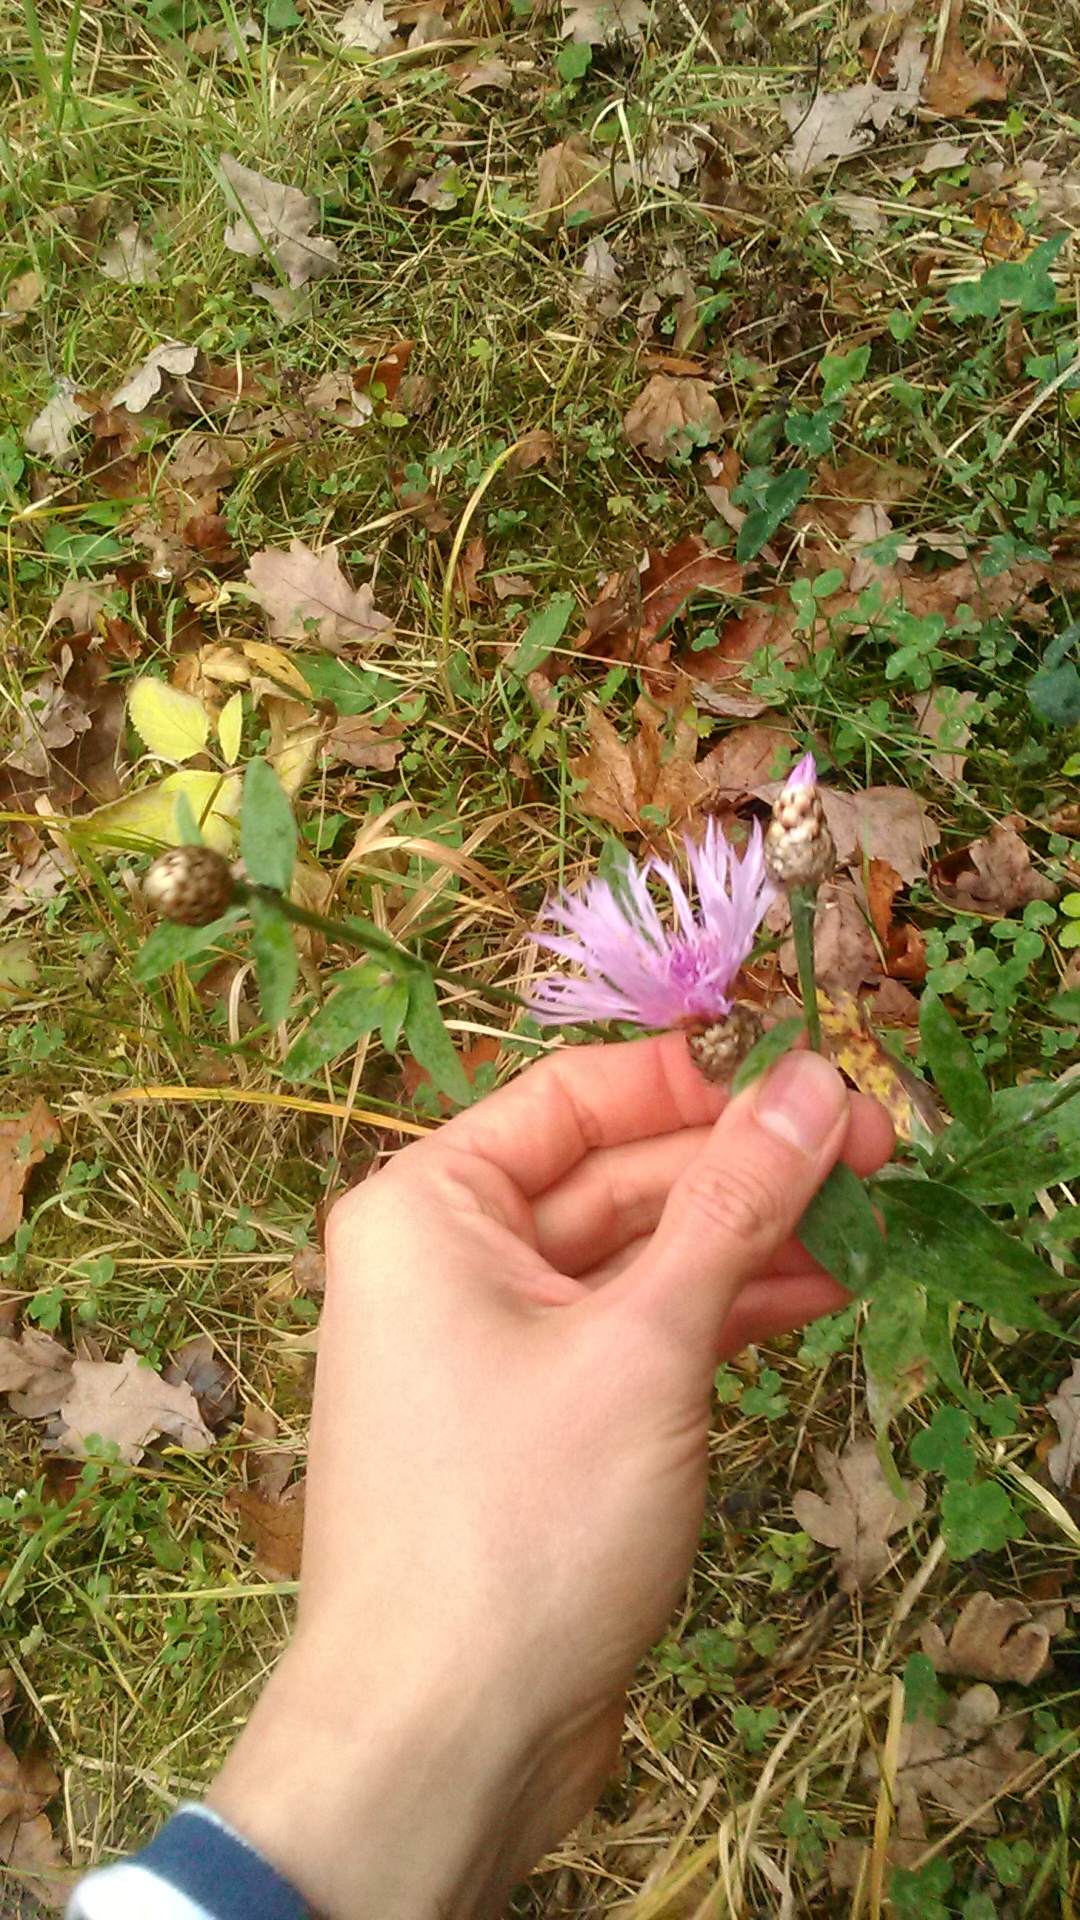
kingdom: Plantae
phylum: Tracheophyta
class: Magnoliopsida
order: Asterales
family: Asteraceae
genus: Centaurea
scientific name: Centaurea jacea
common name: Brown knapweed
